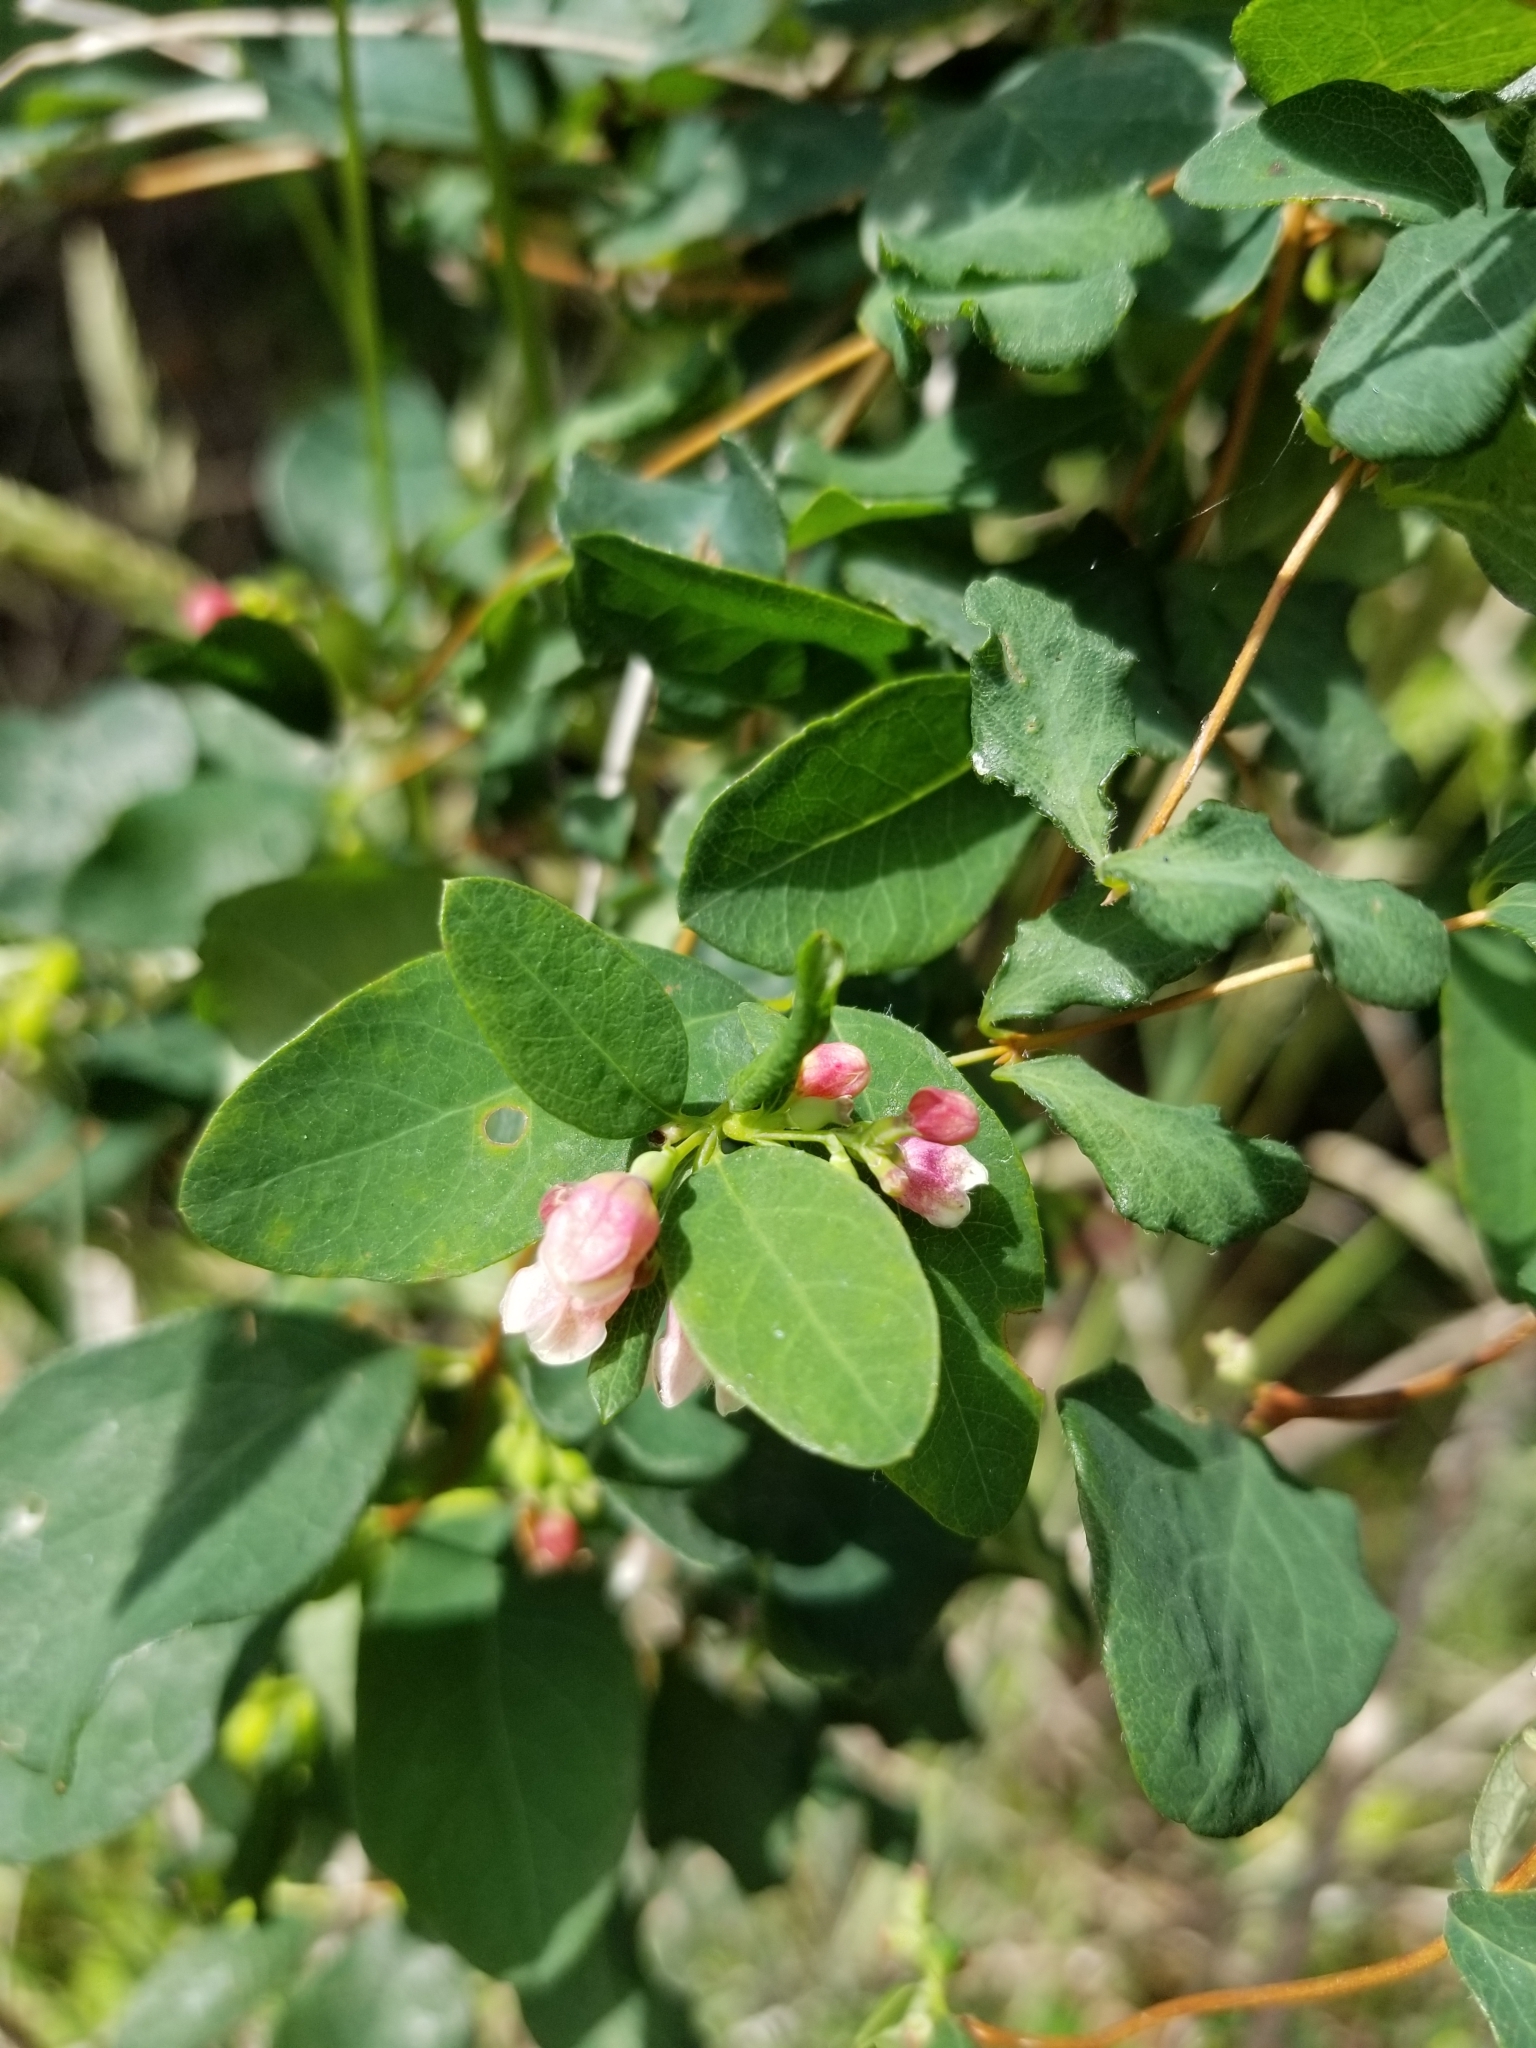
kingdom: Plantae
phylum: Tracheophyta
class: Magnoliopsida
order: Dipsacales
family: Caprifoliaceae
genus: Symphoricarpos
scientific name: Symphoricarpos albus
